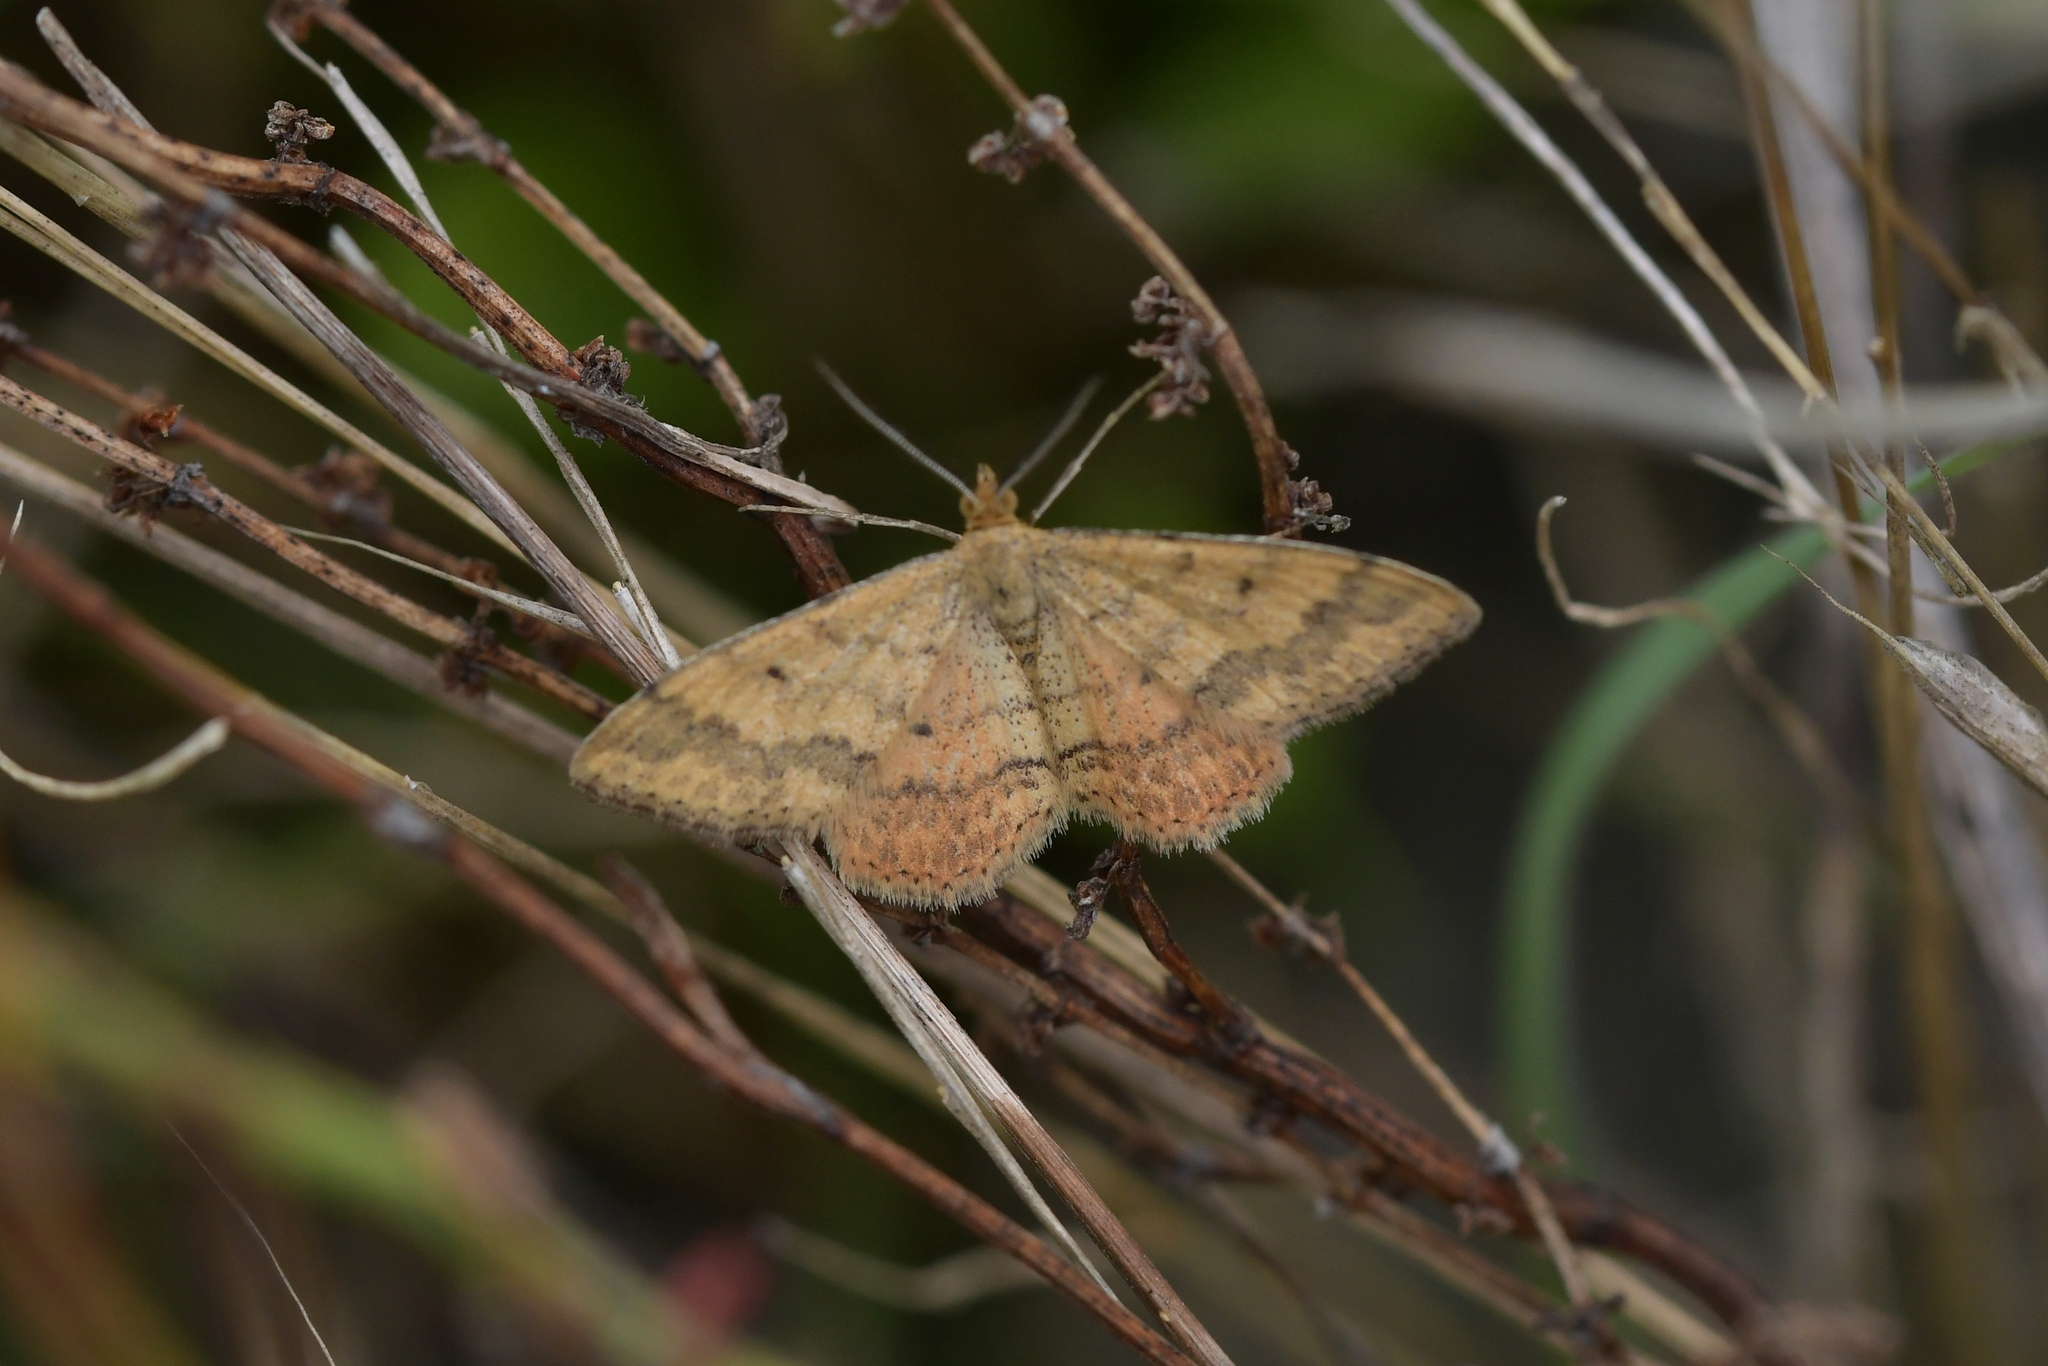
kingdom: Animalia
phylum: Arthropoda
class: Insecta
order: Lepidoptera
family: Geometridae
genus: Scopula
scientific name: Scopula rubraria
